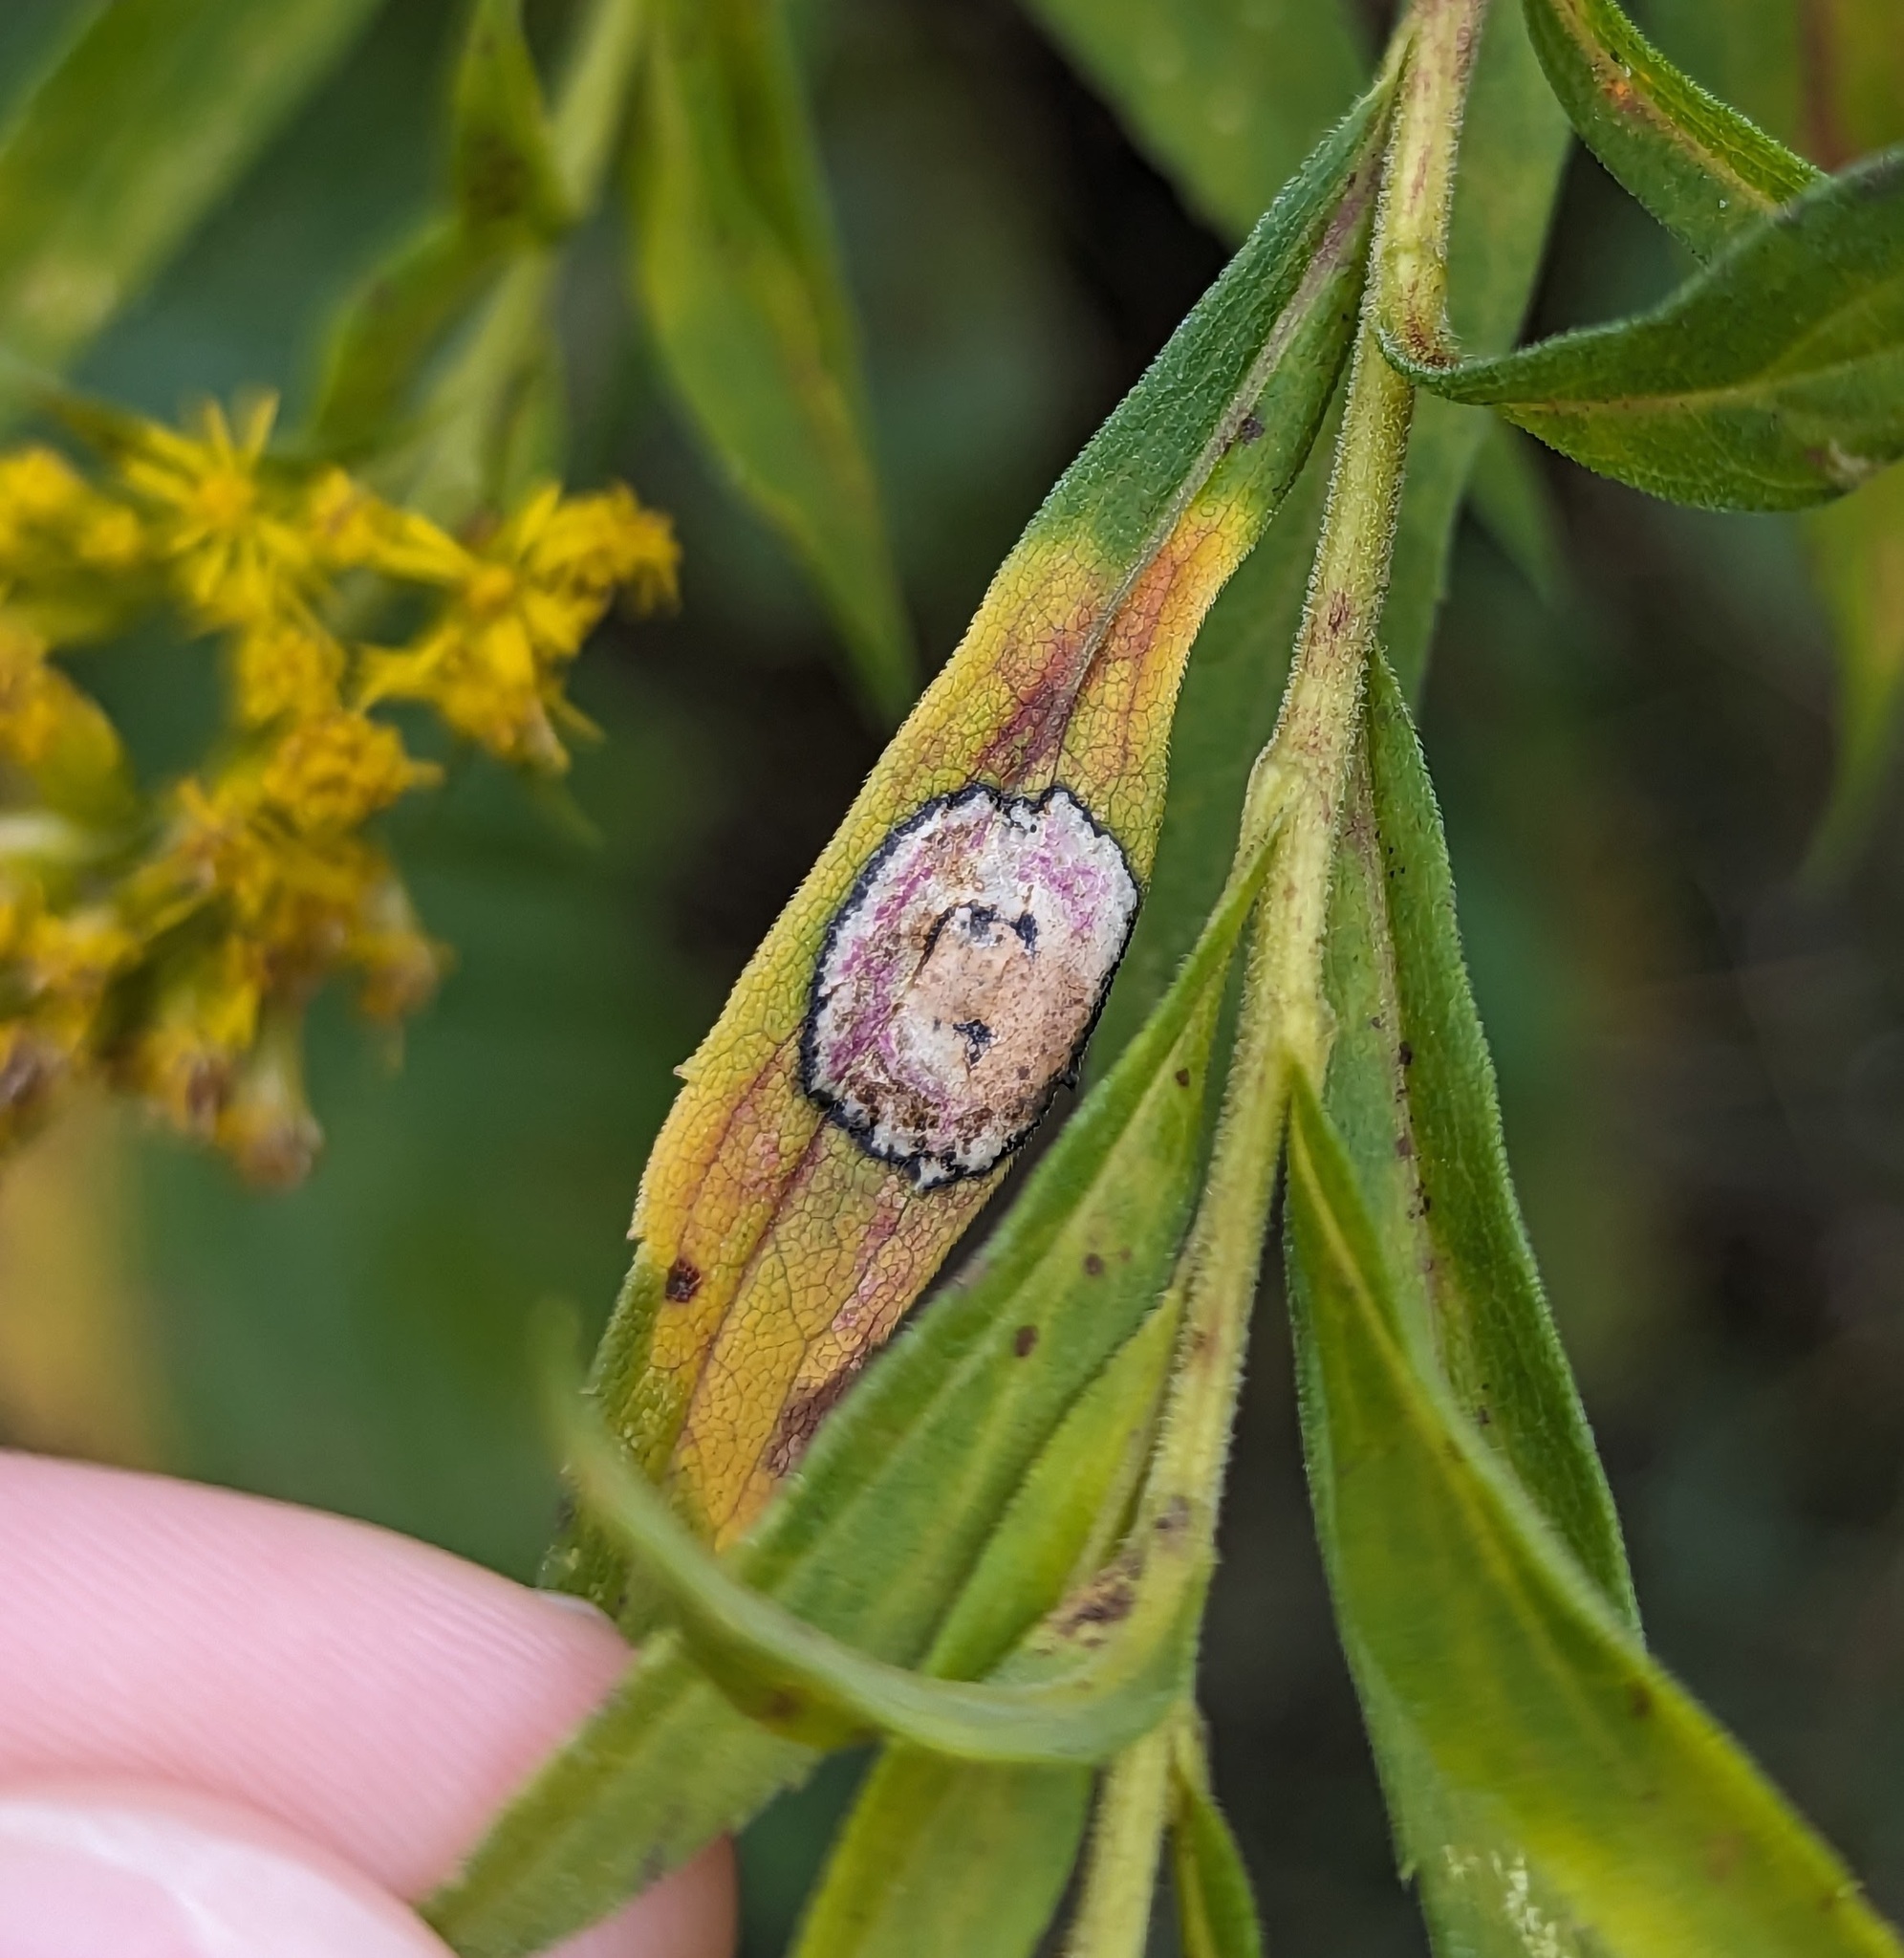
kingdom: Animalia
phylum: Arthropoda
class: Insecta
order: Diptera
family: Cecidomyiidae
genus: Asteromyia
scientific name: Asteromyia carbonifera
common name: Carbonifera goldenrod gall midge
